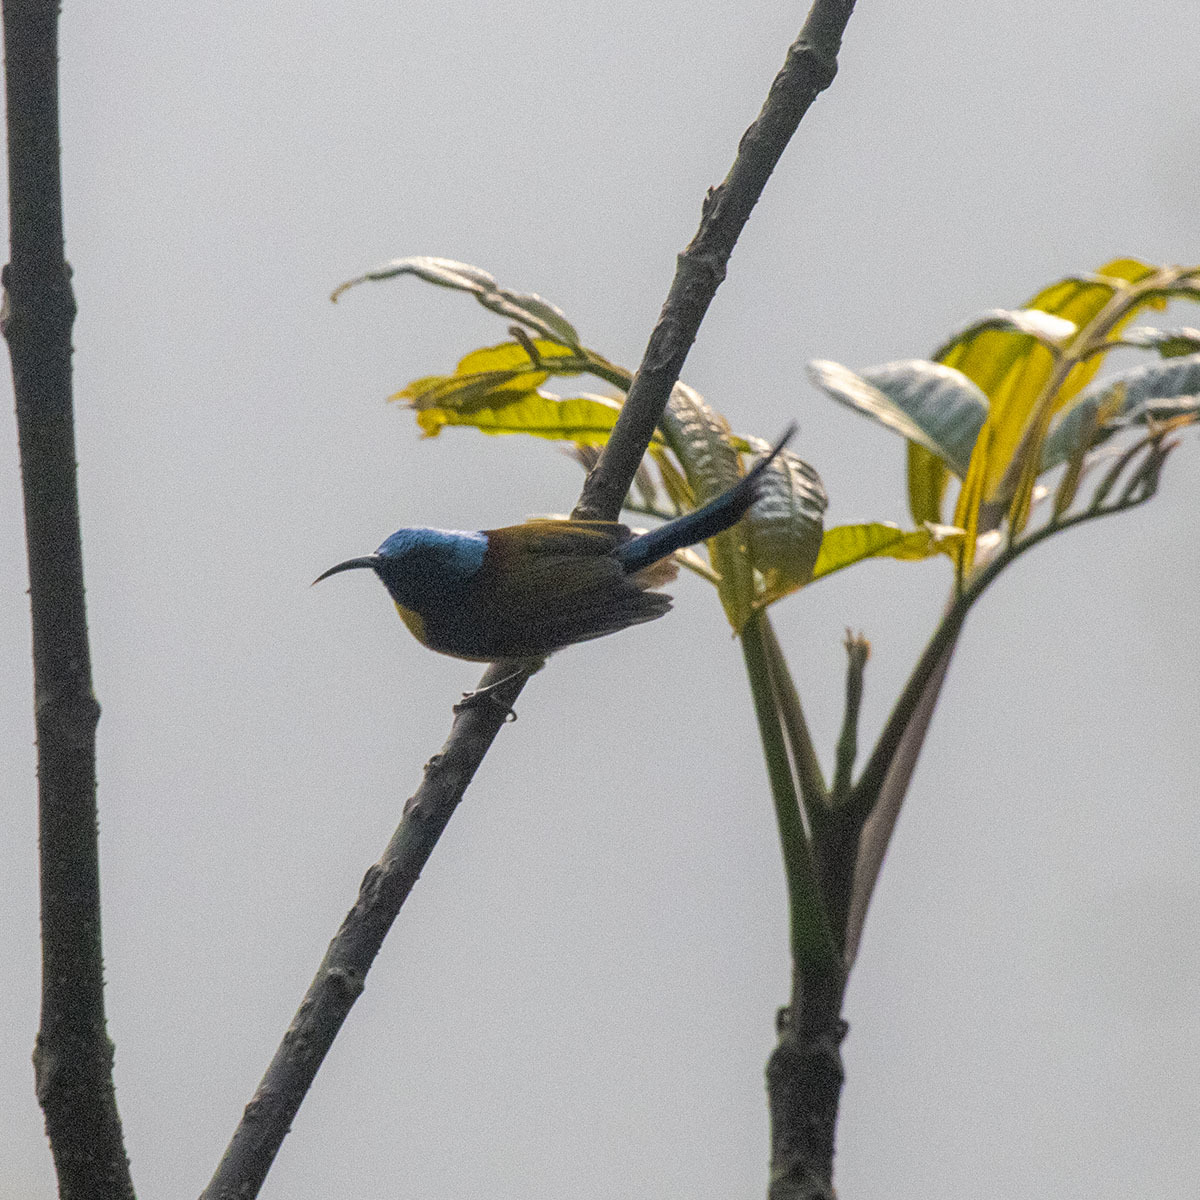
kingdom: Animalia
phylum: Chordata
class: Aves
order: Passeriformes
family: Nectariniidae
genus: Aethopyga
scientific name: Aethopyga nipalensis
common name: Green-tailed sunbird
